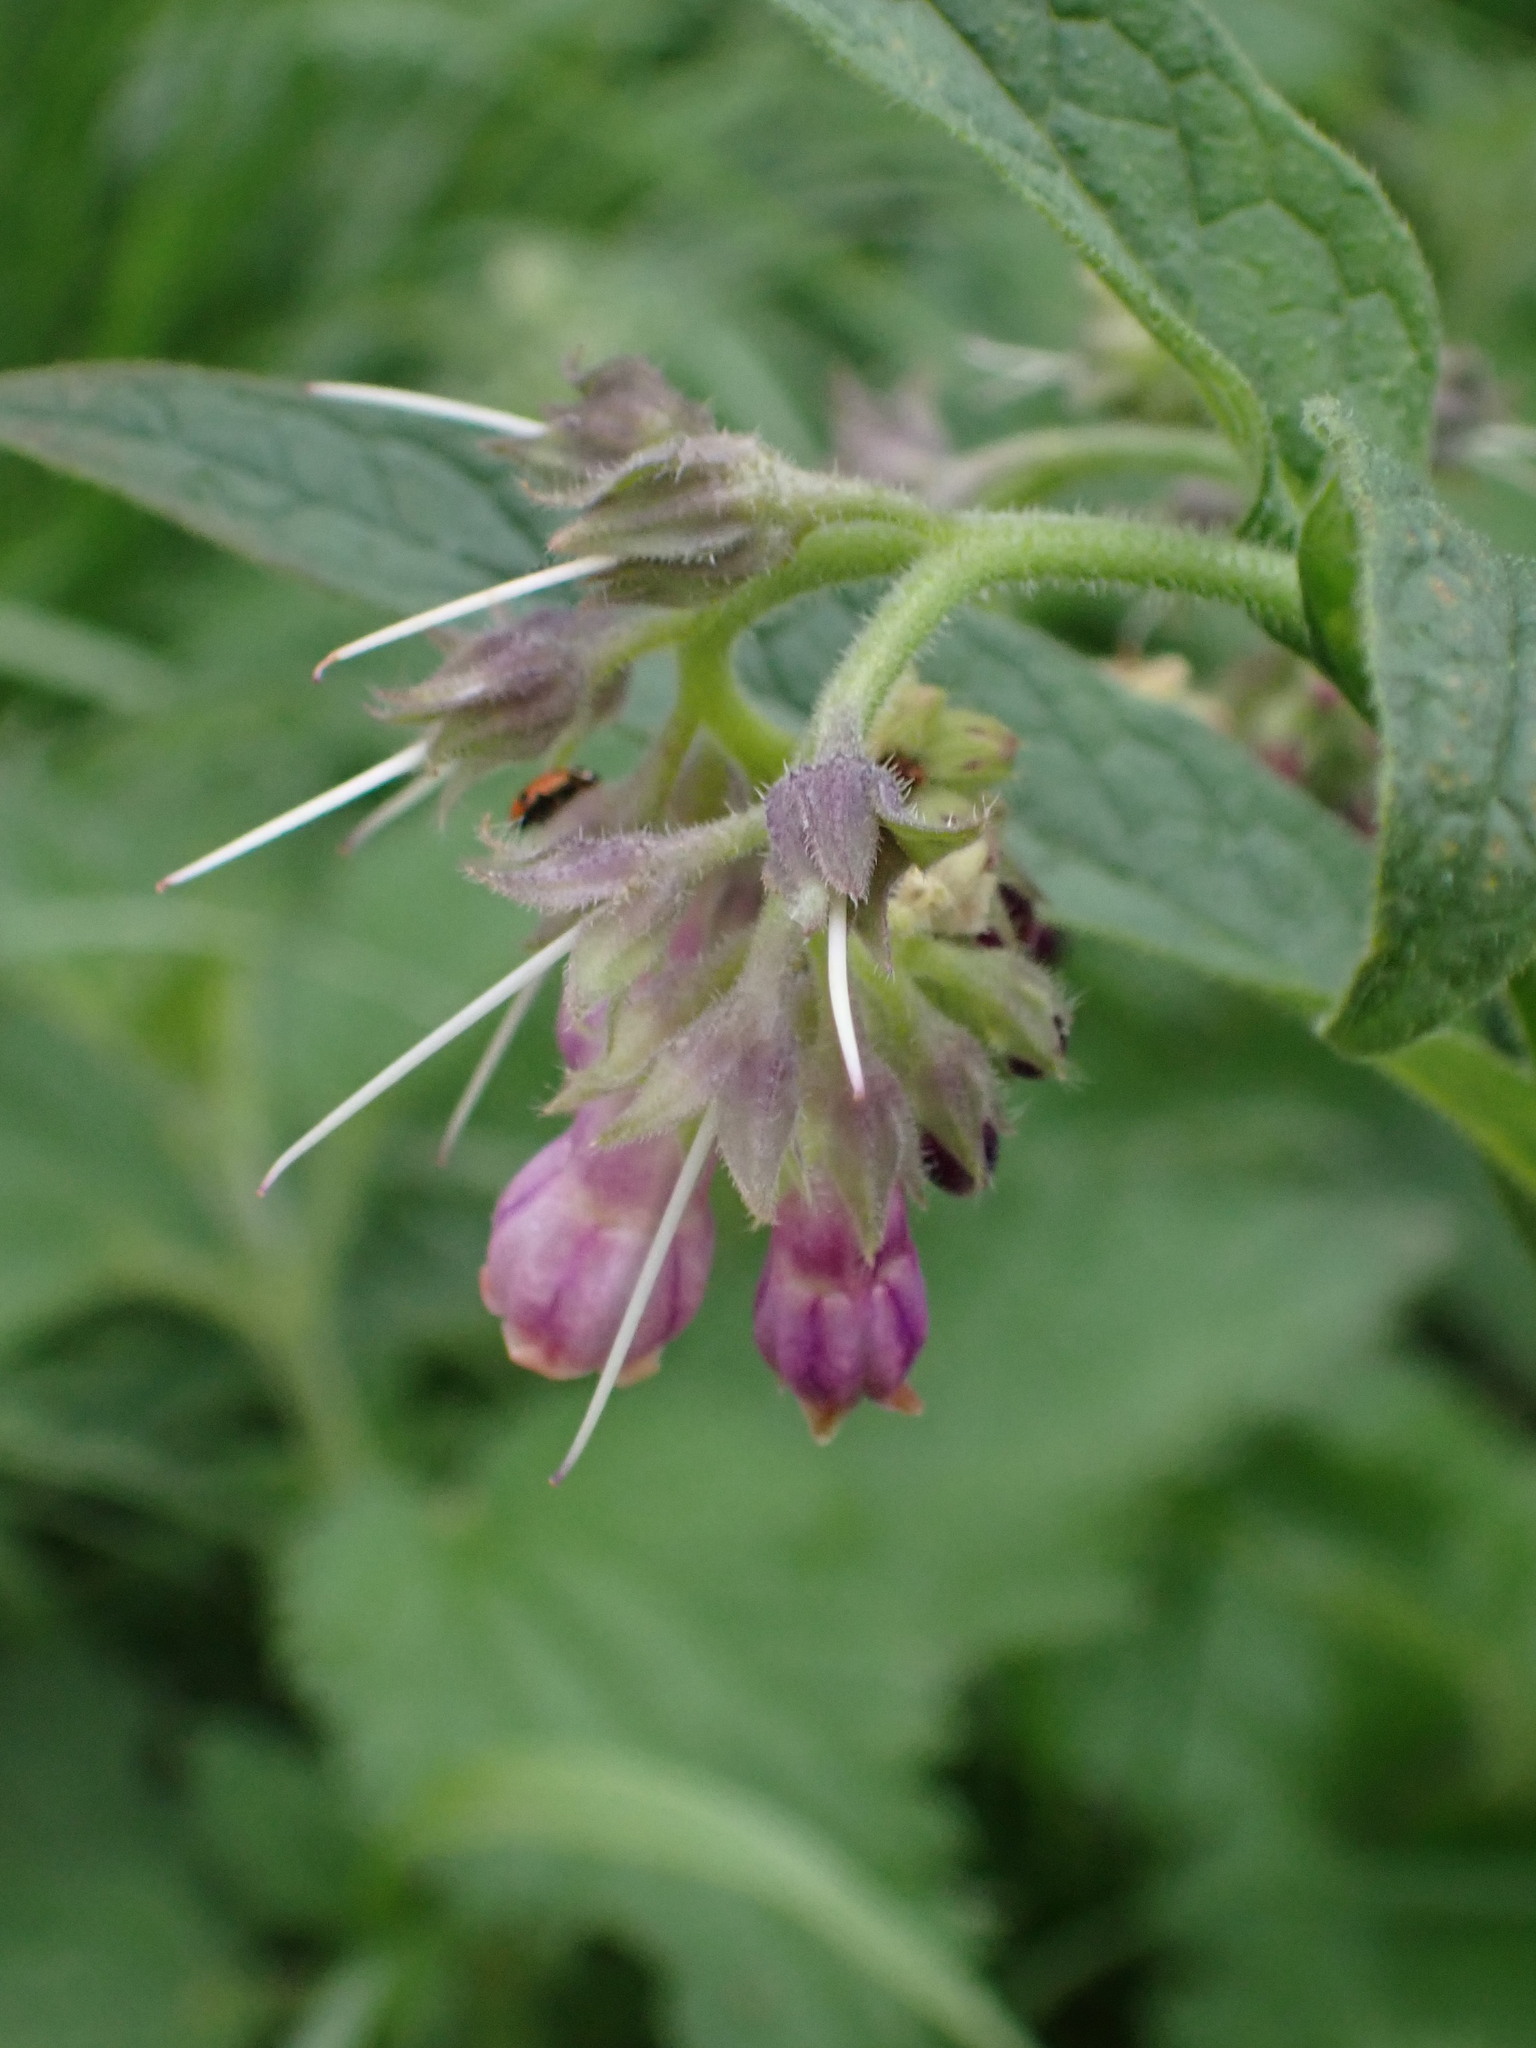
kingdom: Plantae
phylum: Tracheophyta
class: Magnoliopsida
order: Boraginales
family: Boraginaceae
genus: Symphytum
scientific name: Symphytum officinale
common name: Common comfrey
